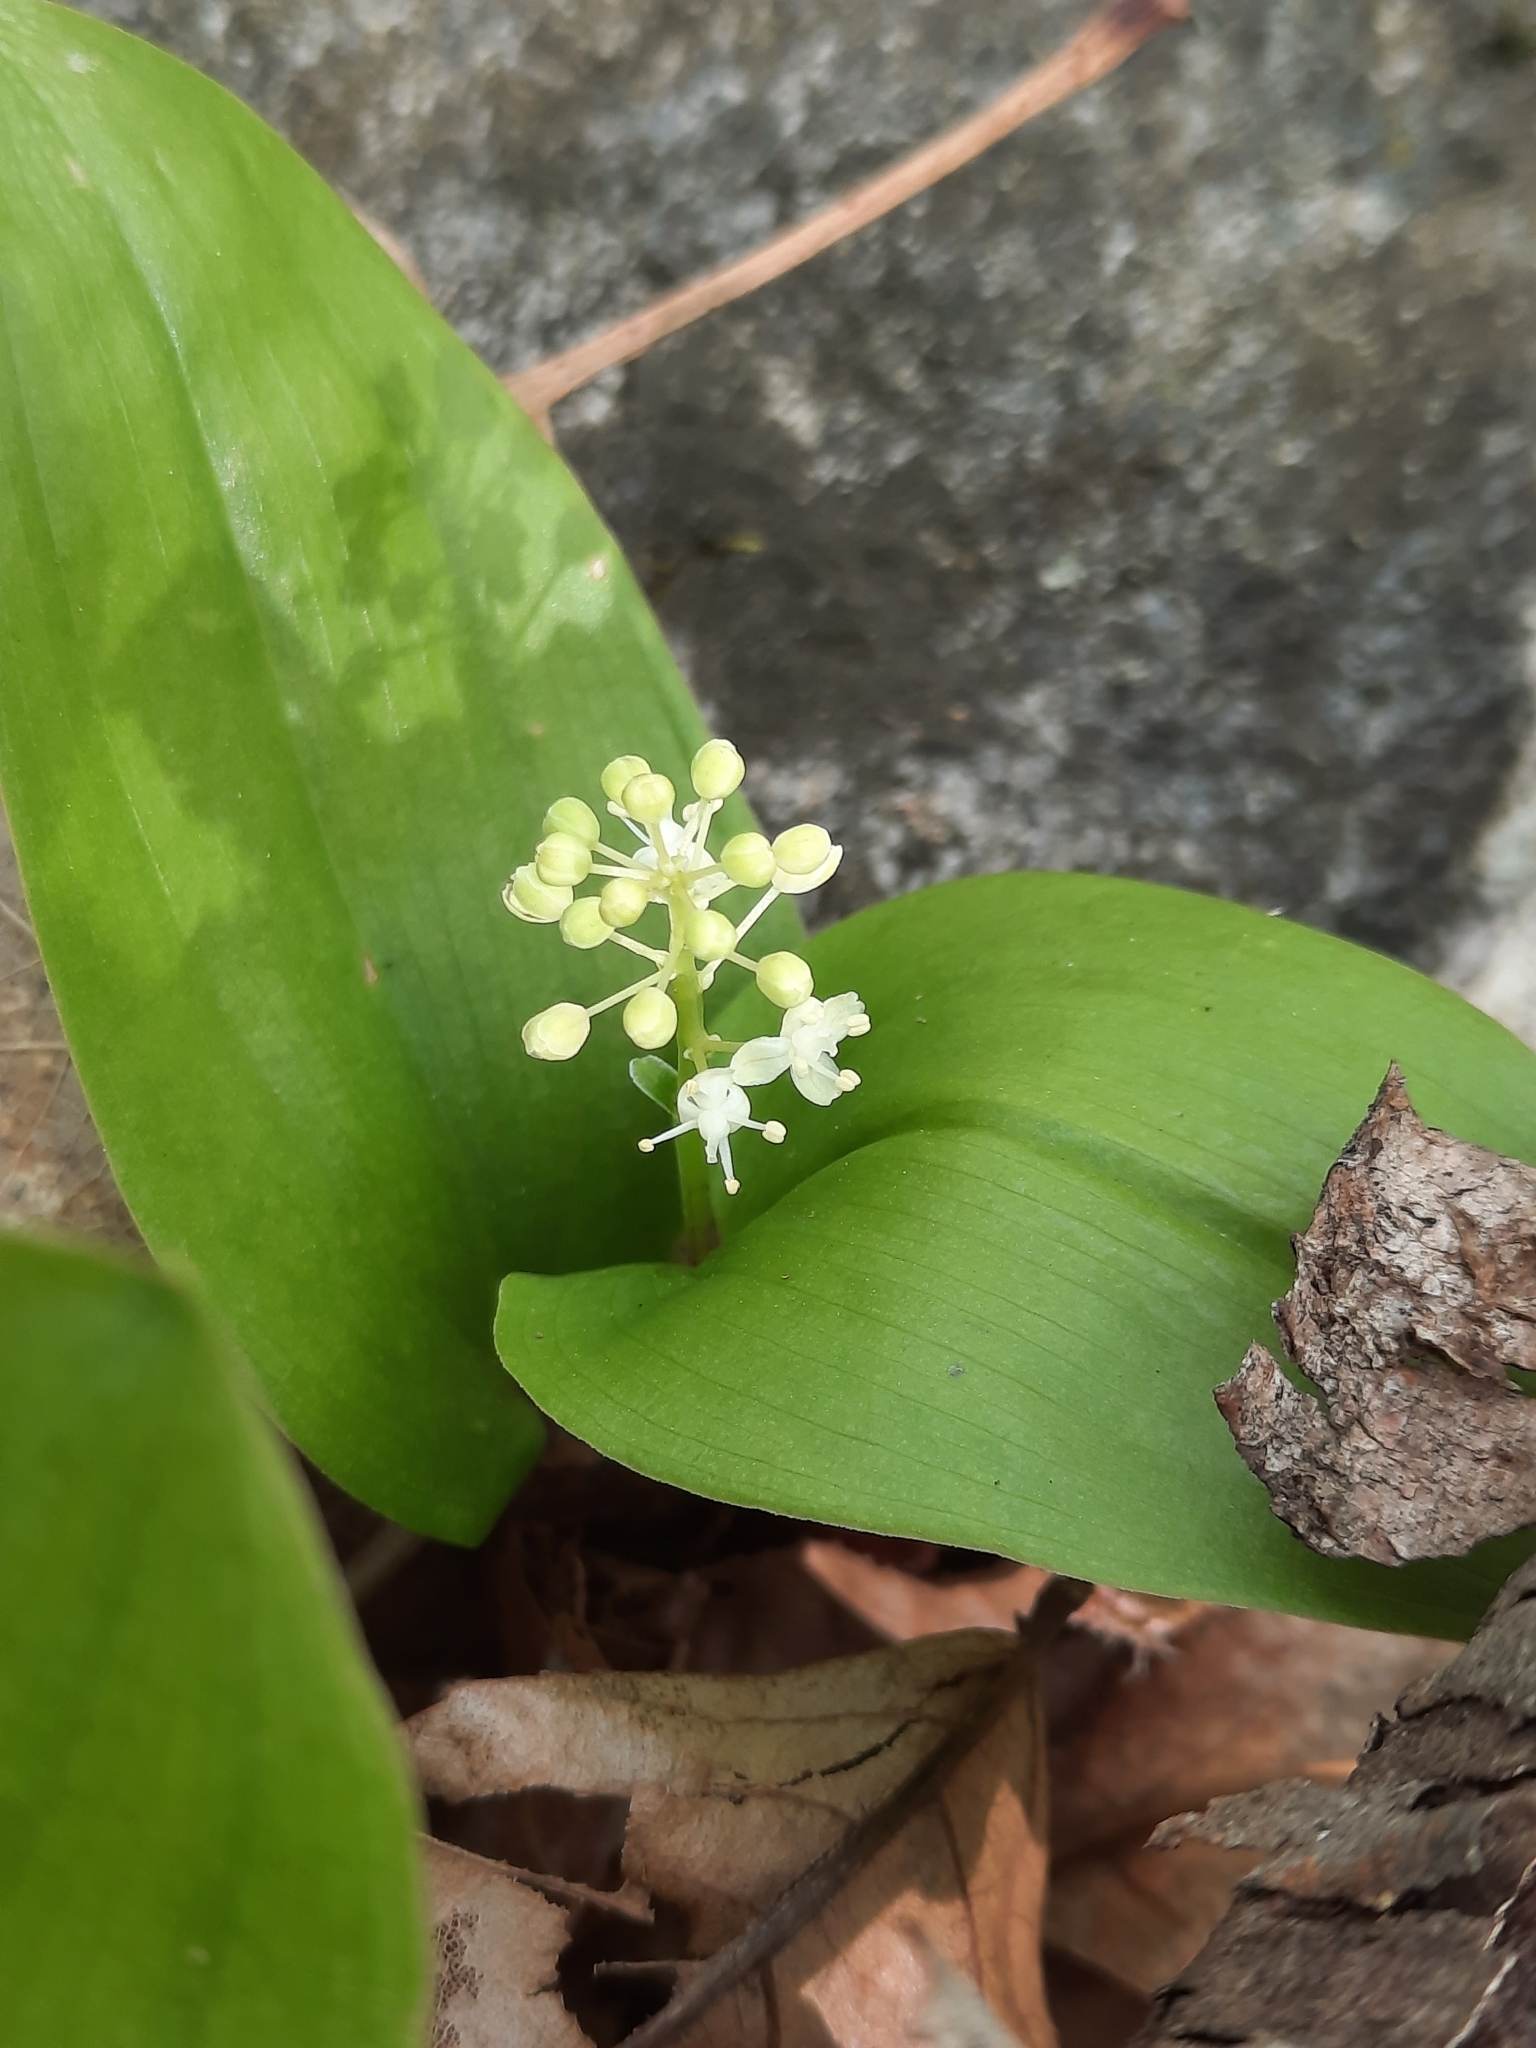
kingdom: Plantae
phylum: Tracheophyta
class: Liliopsida
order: Asparagales
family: Asparagaceae
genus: Maianthemum
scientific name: Maianthemum canadense
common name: False lily-of-the-valley
